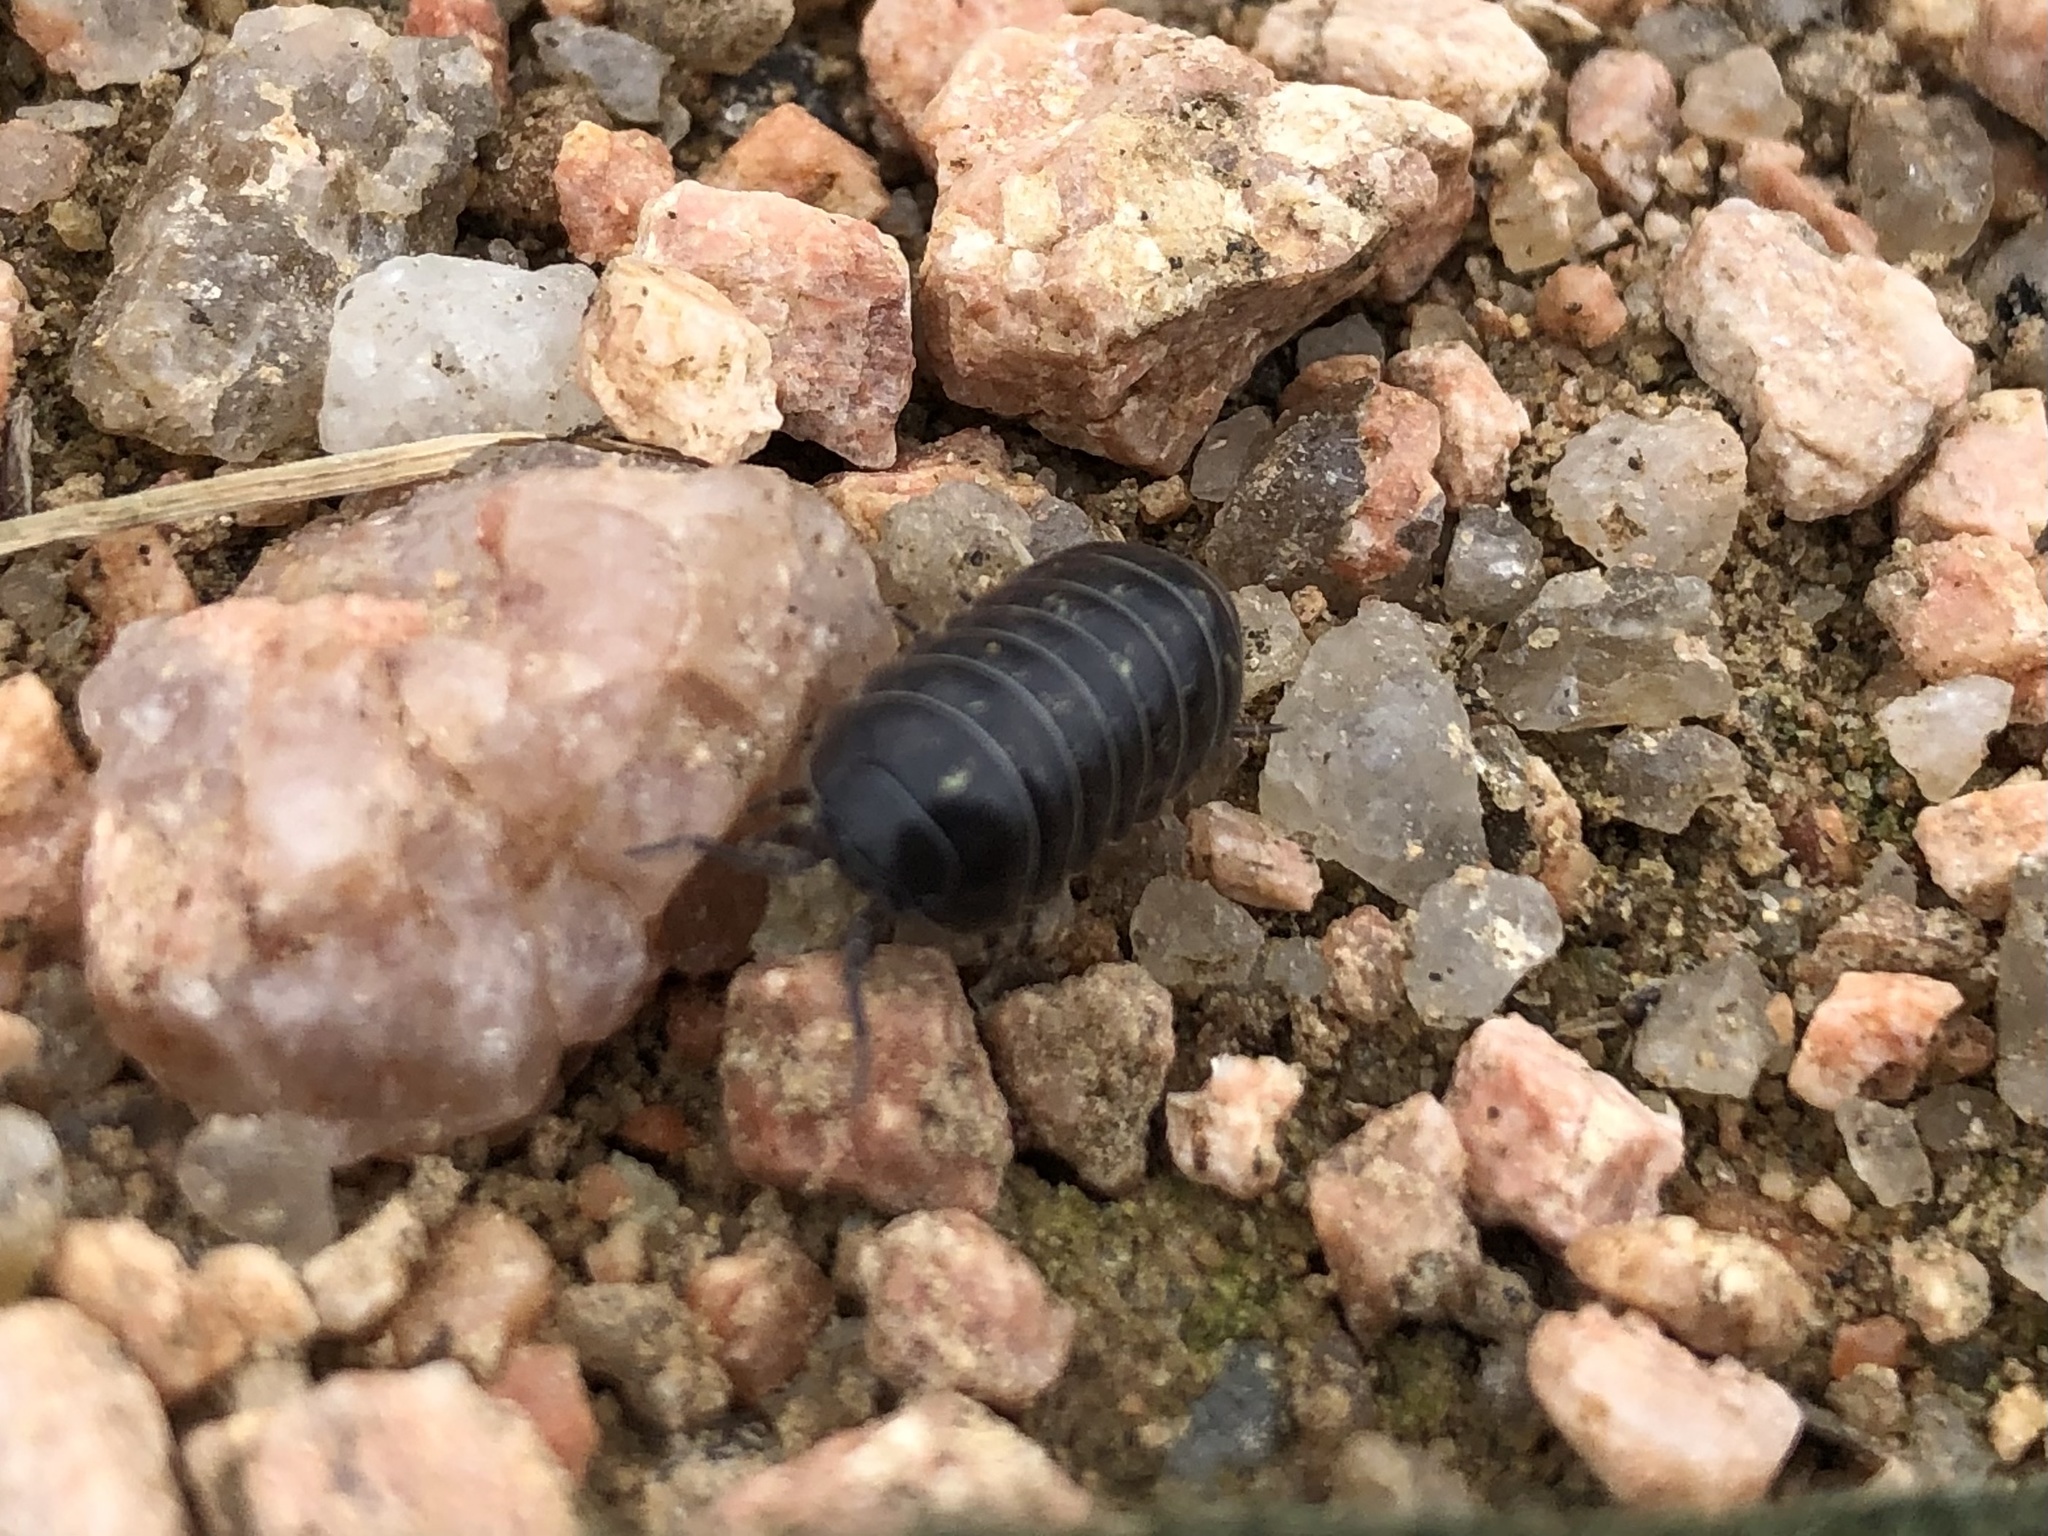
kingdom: Animalia
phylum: Arthropoda
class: Malacostraca
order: Isopoda
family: Armadillidiidae
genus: Armadillidium
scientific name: Armadillidium vulgare
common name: Common pill woodlouse
